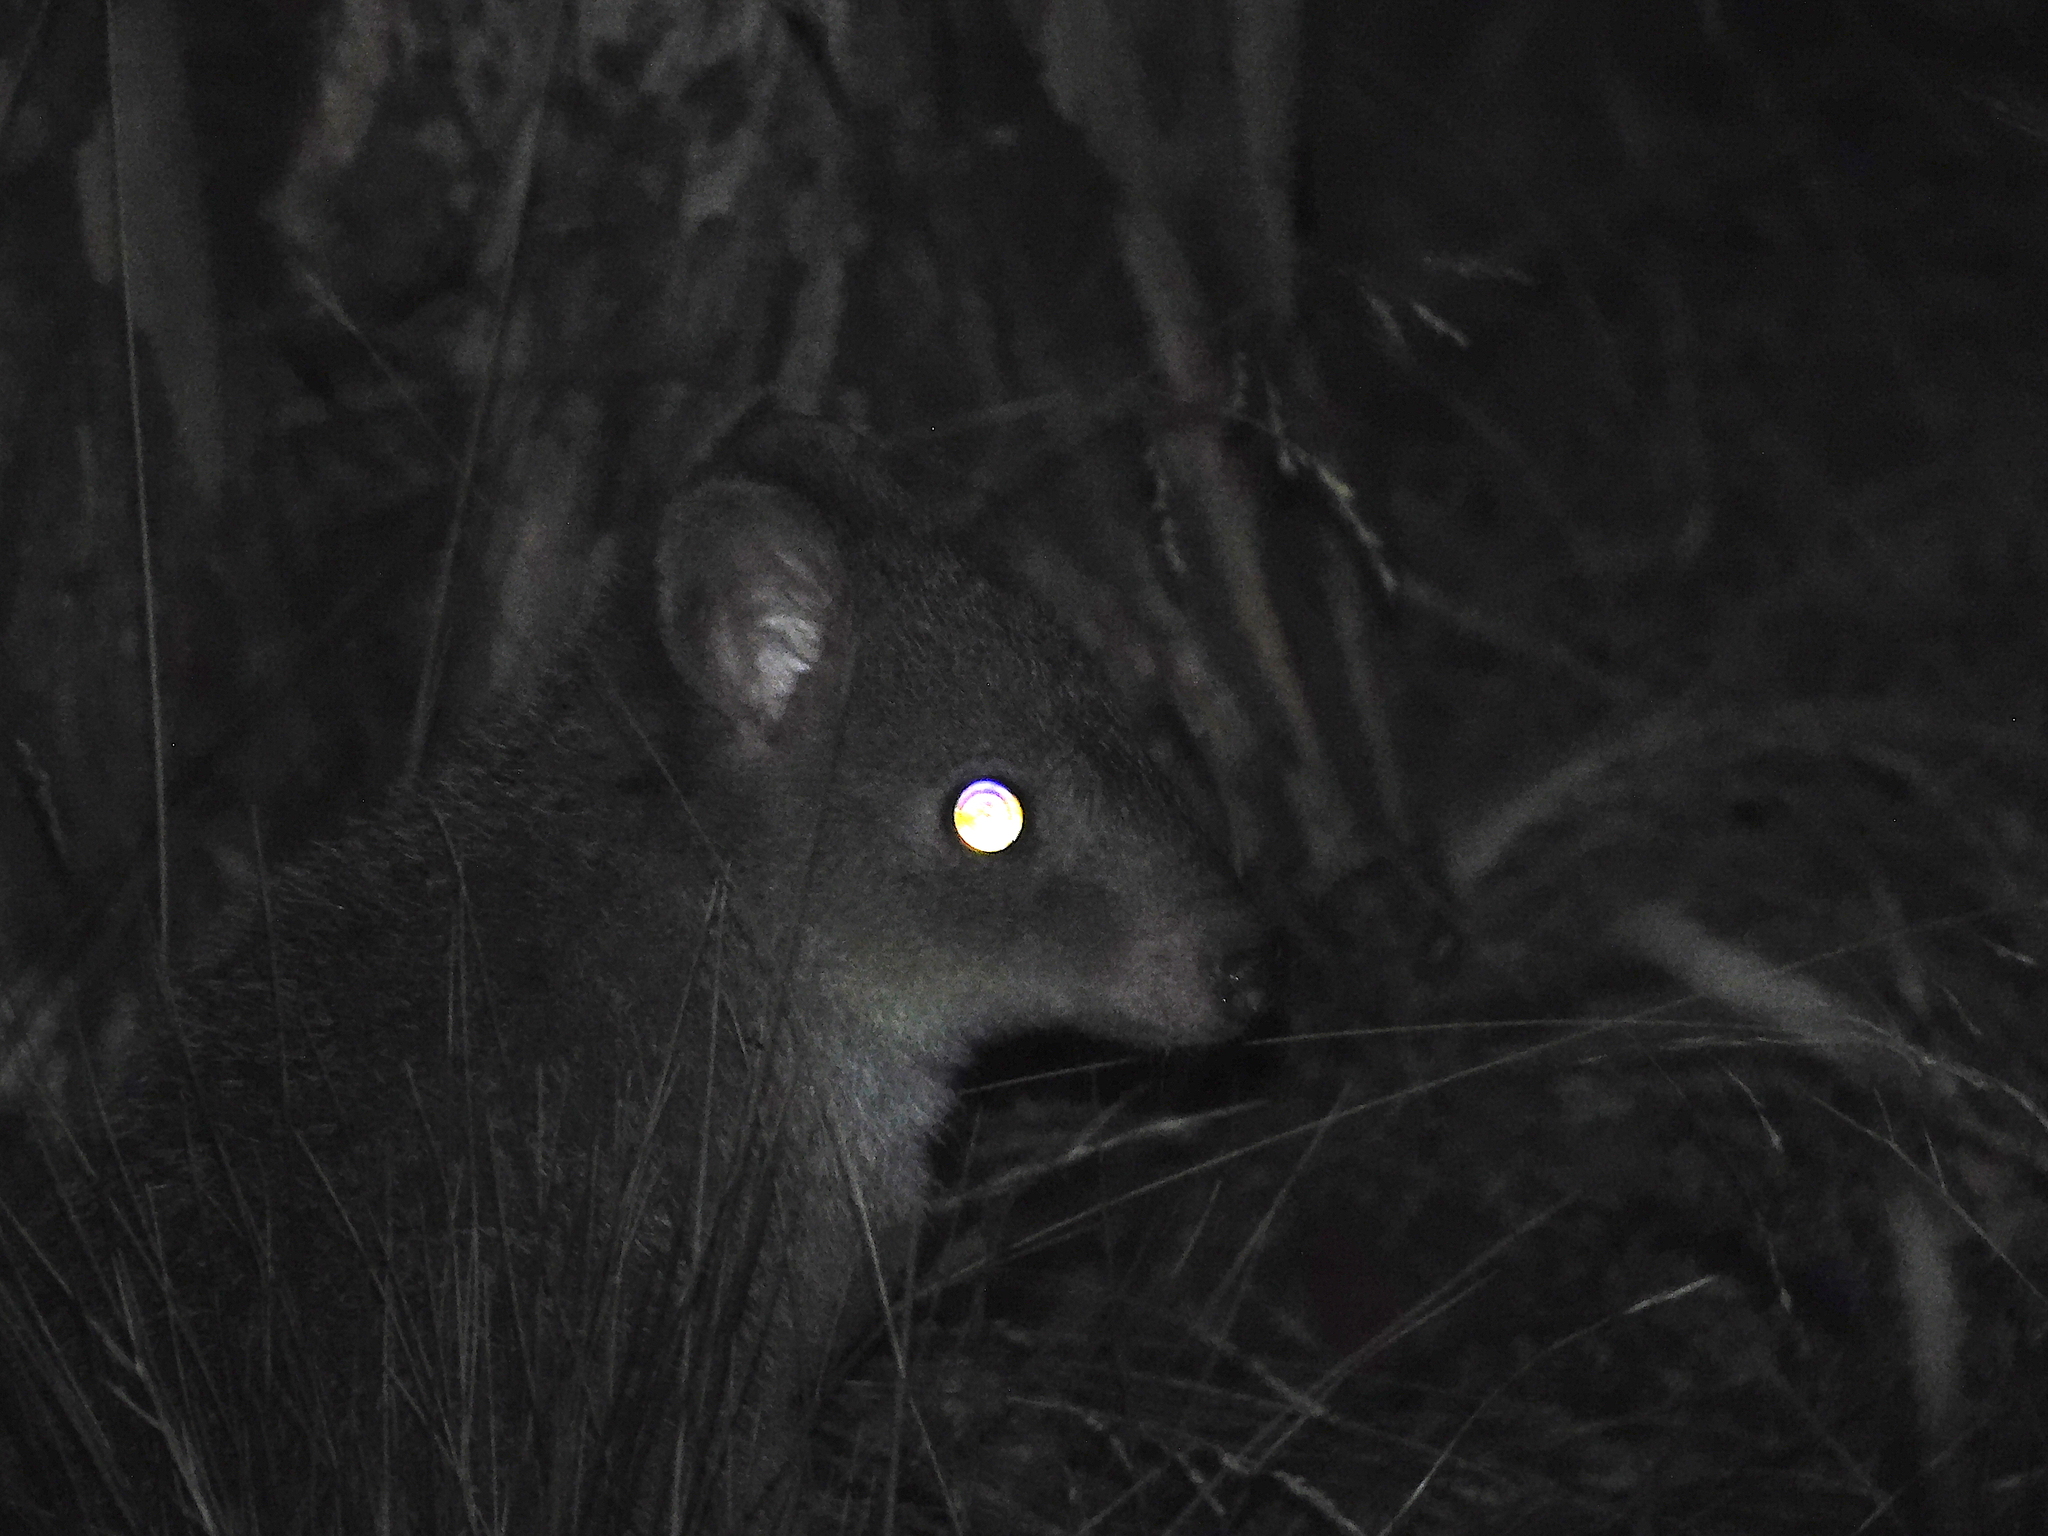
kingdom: Animalia
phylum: Chordata
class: Mammalia
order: Diprotodontia
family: Potoroidae
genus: Bettongia
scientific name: Bettongia gaimardi
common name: Eastern bettong
